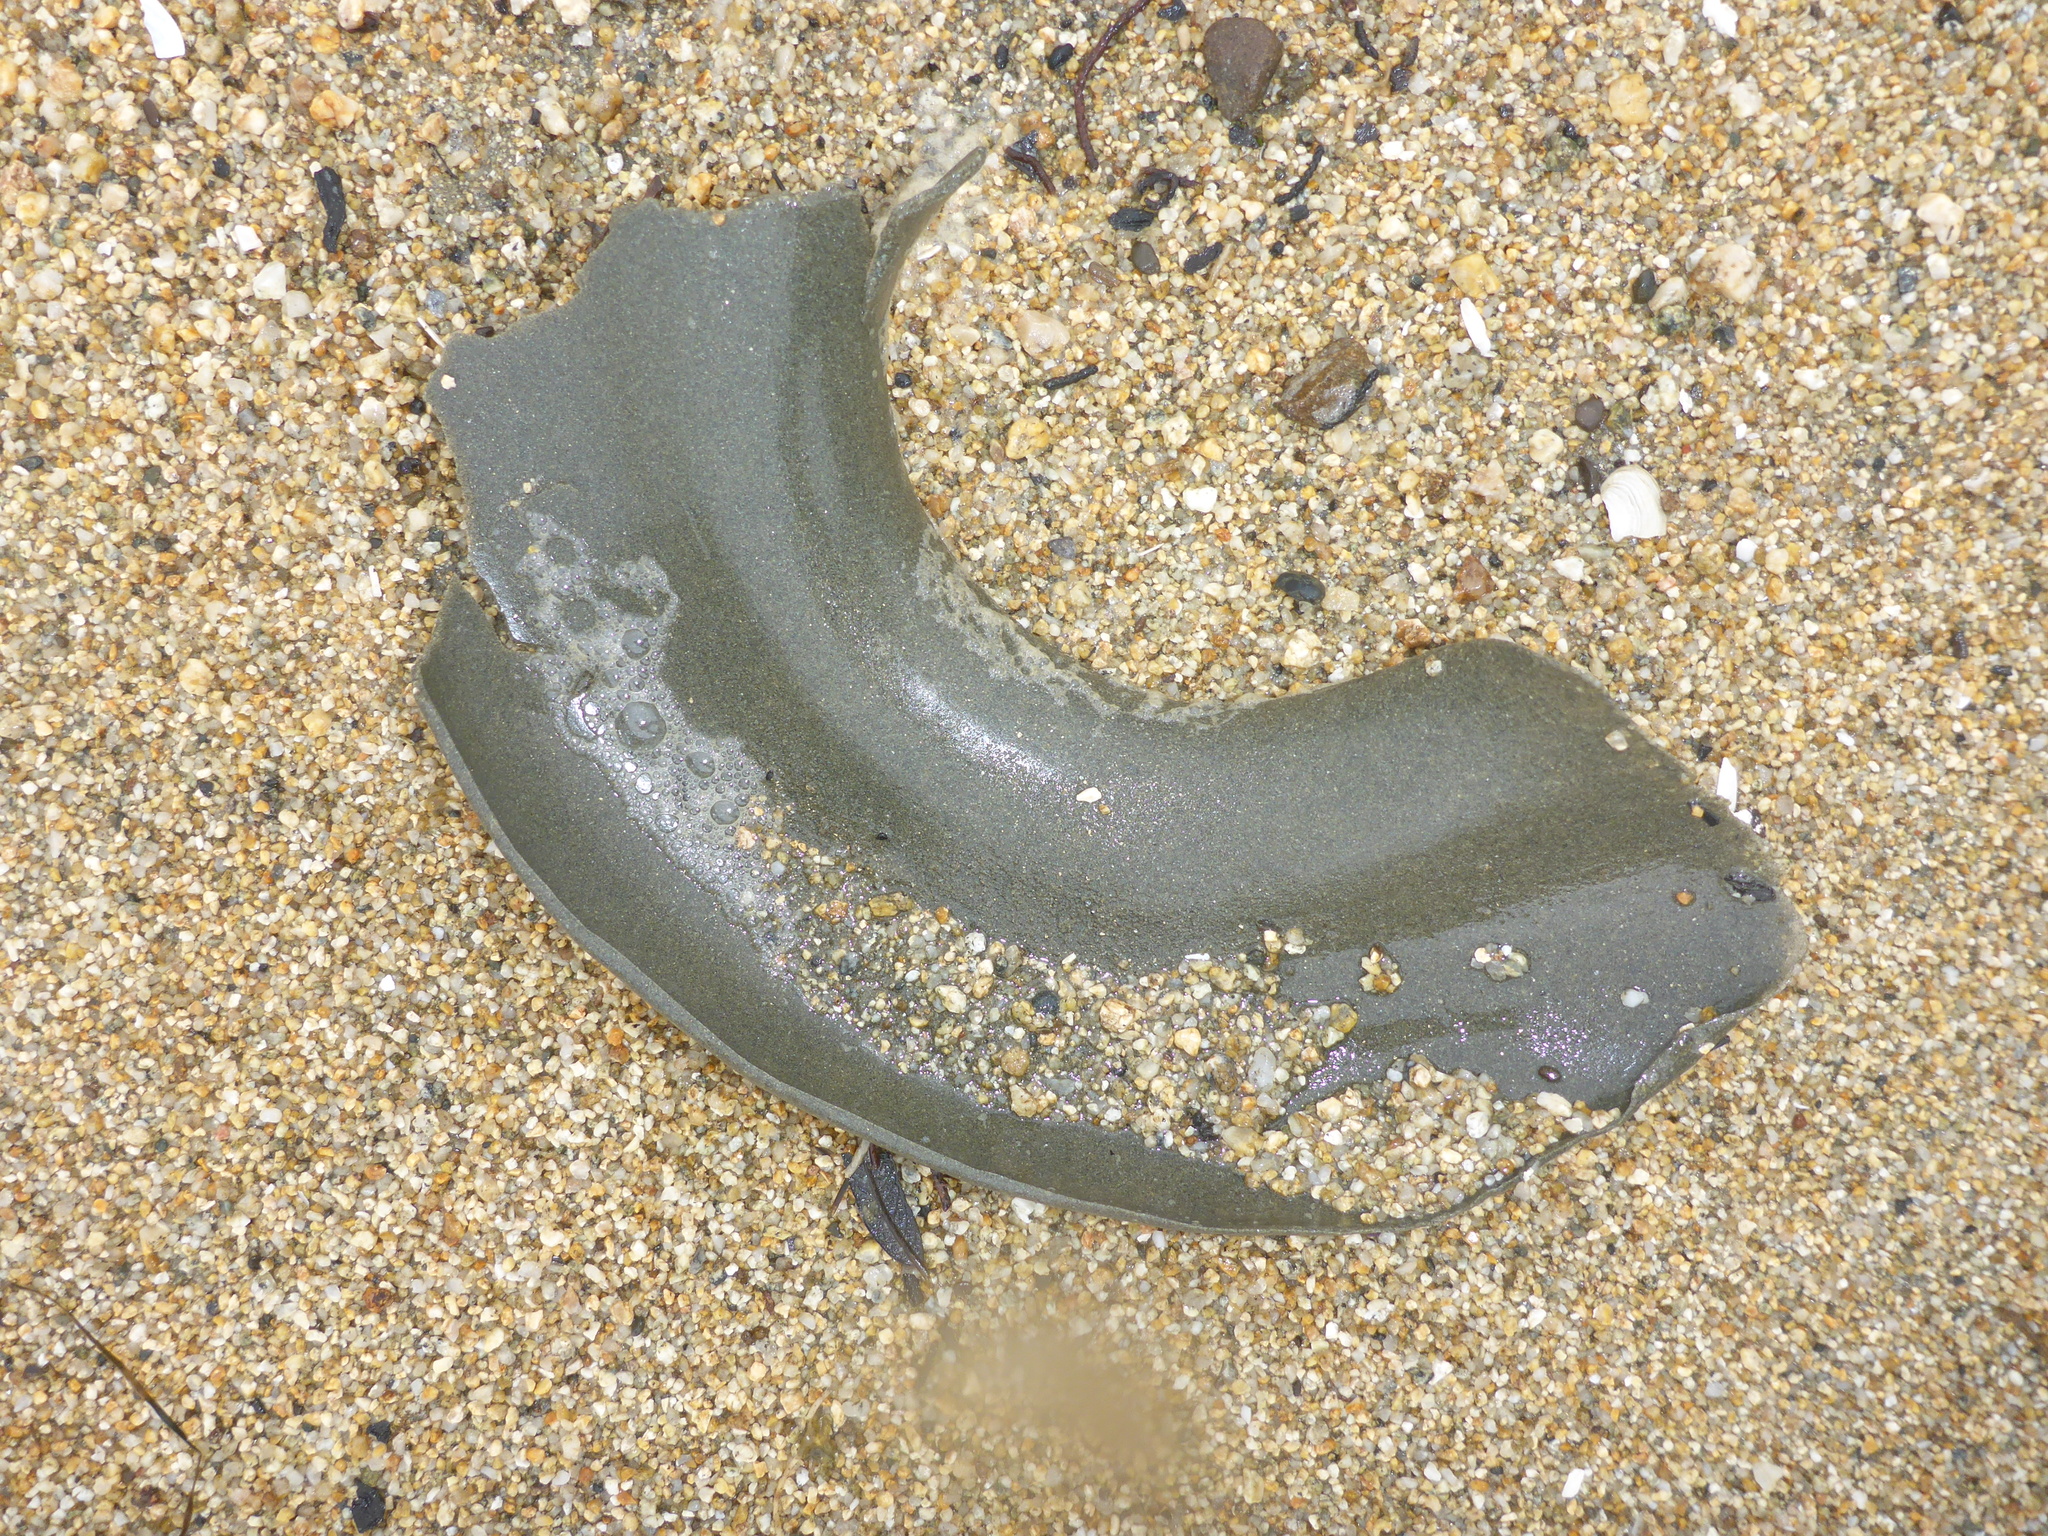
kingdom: Animalia
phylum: Mollusca
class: Gastropoda
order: Littorinimorpha
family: Naticidae
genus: Neverita
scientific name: Neverita lewisii
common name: Lewis' moonsnail
